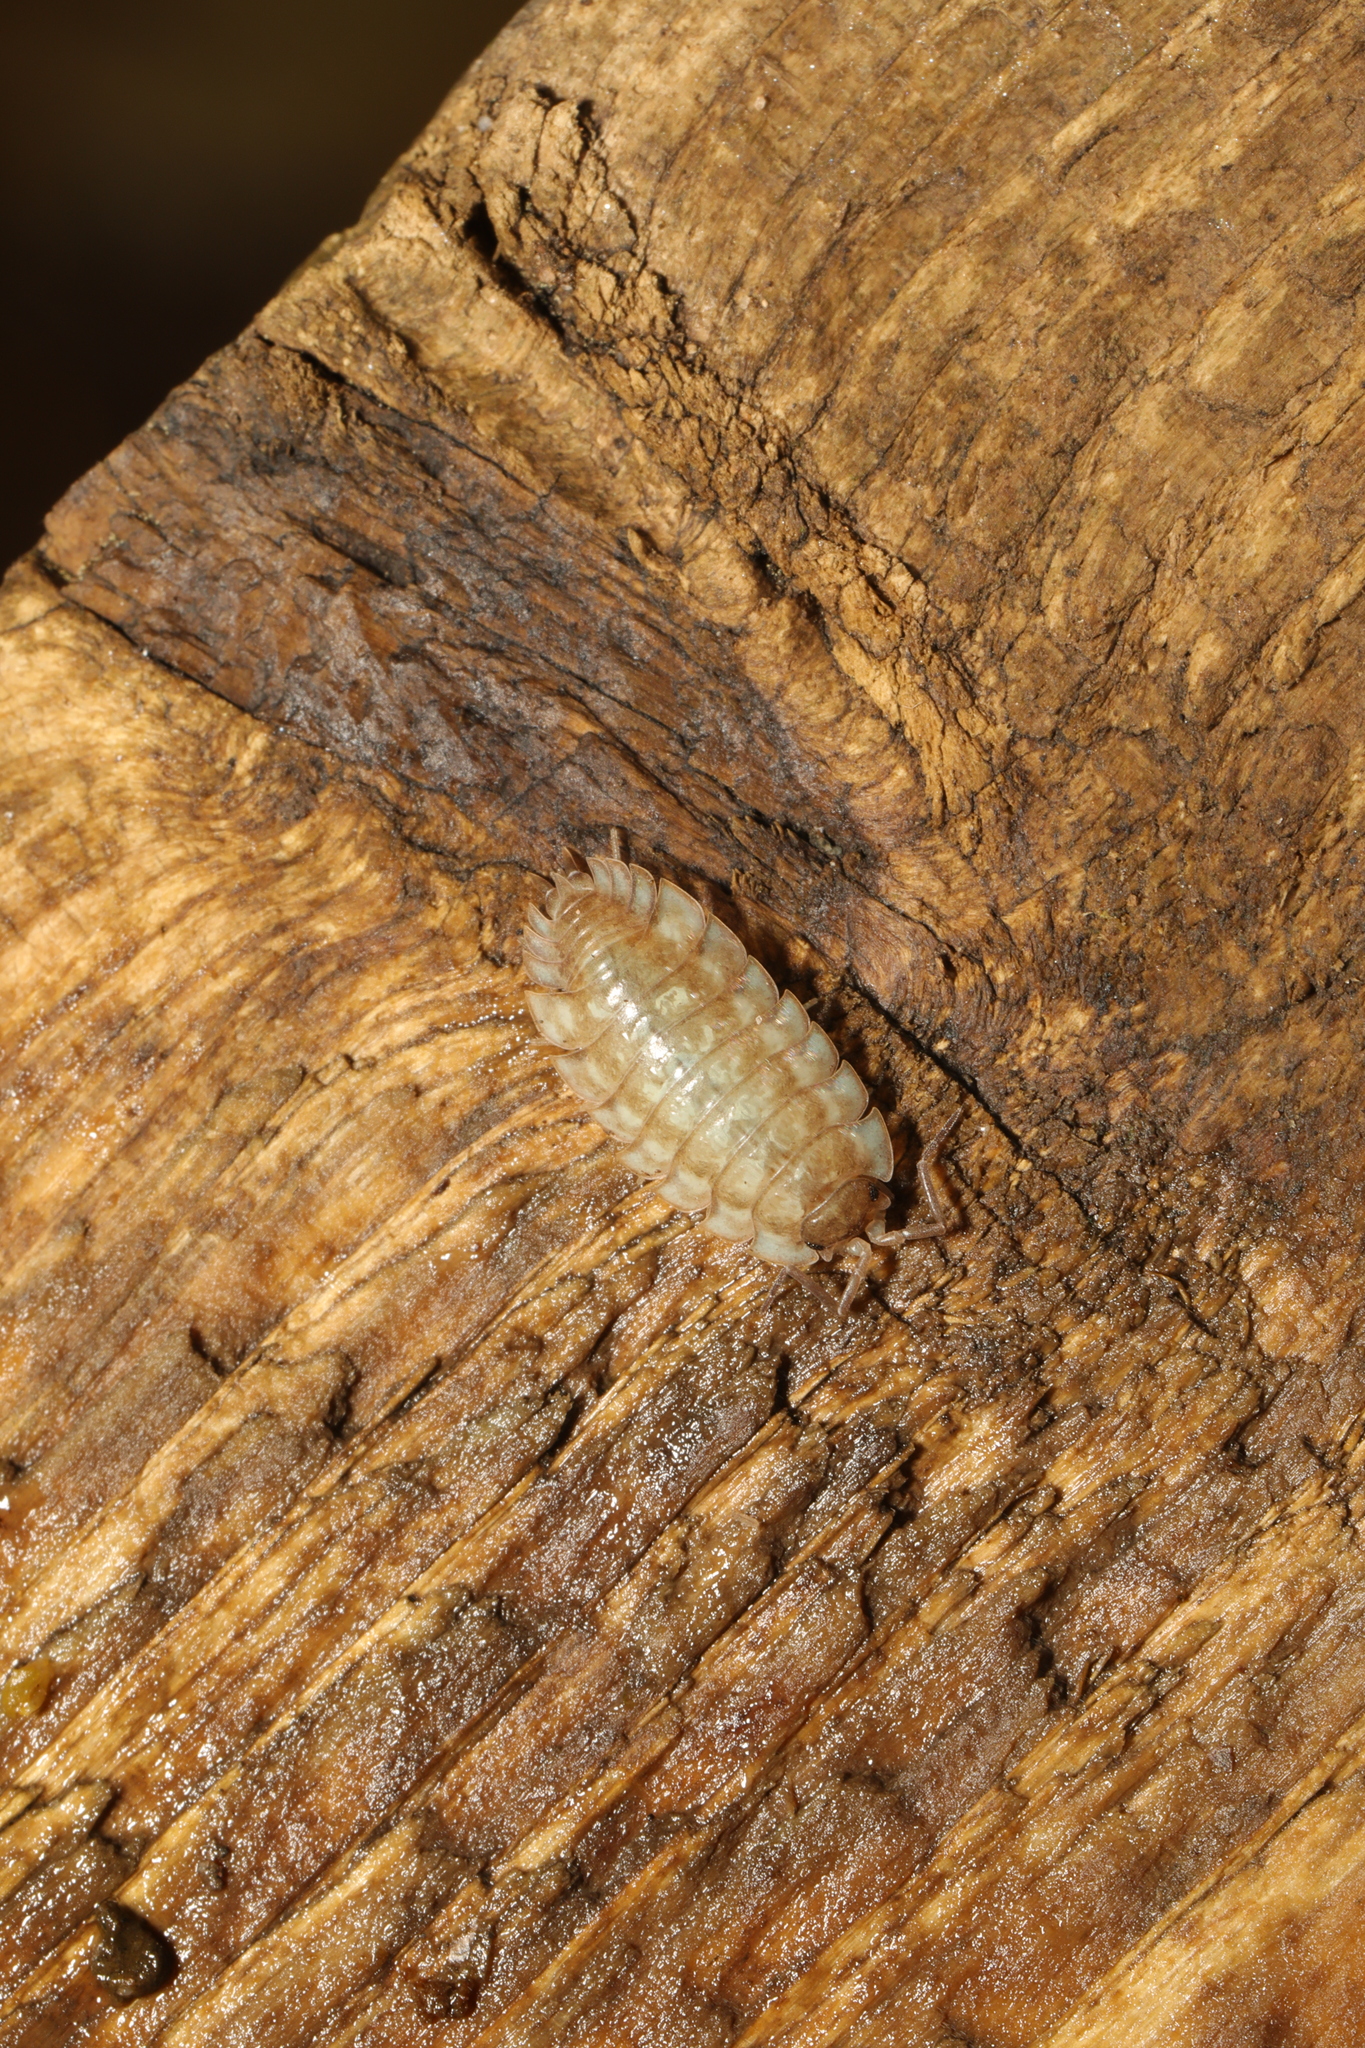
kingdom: Animalia
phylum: Arthropoda
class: Malacostraca
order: Isopoda
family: Oniscidae
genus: Oniscus
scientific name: Oniscus asellus
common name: Common shiny woodlouse
